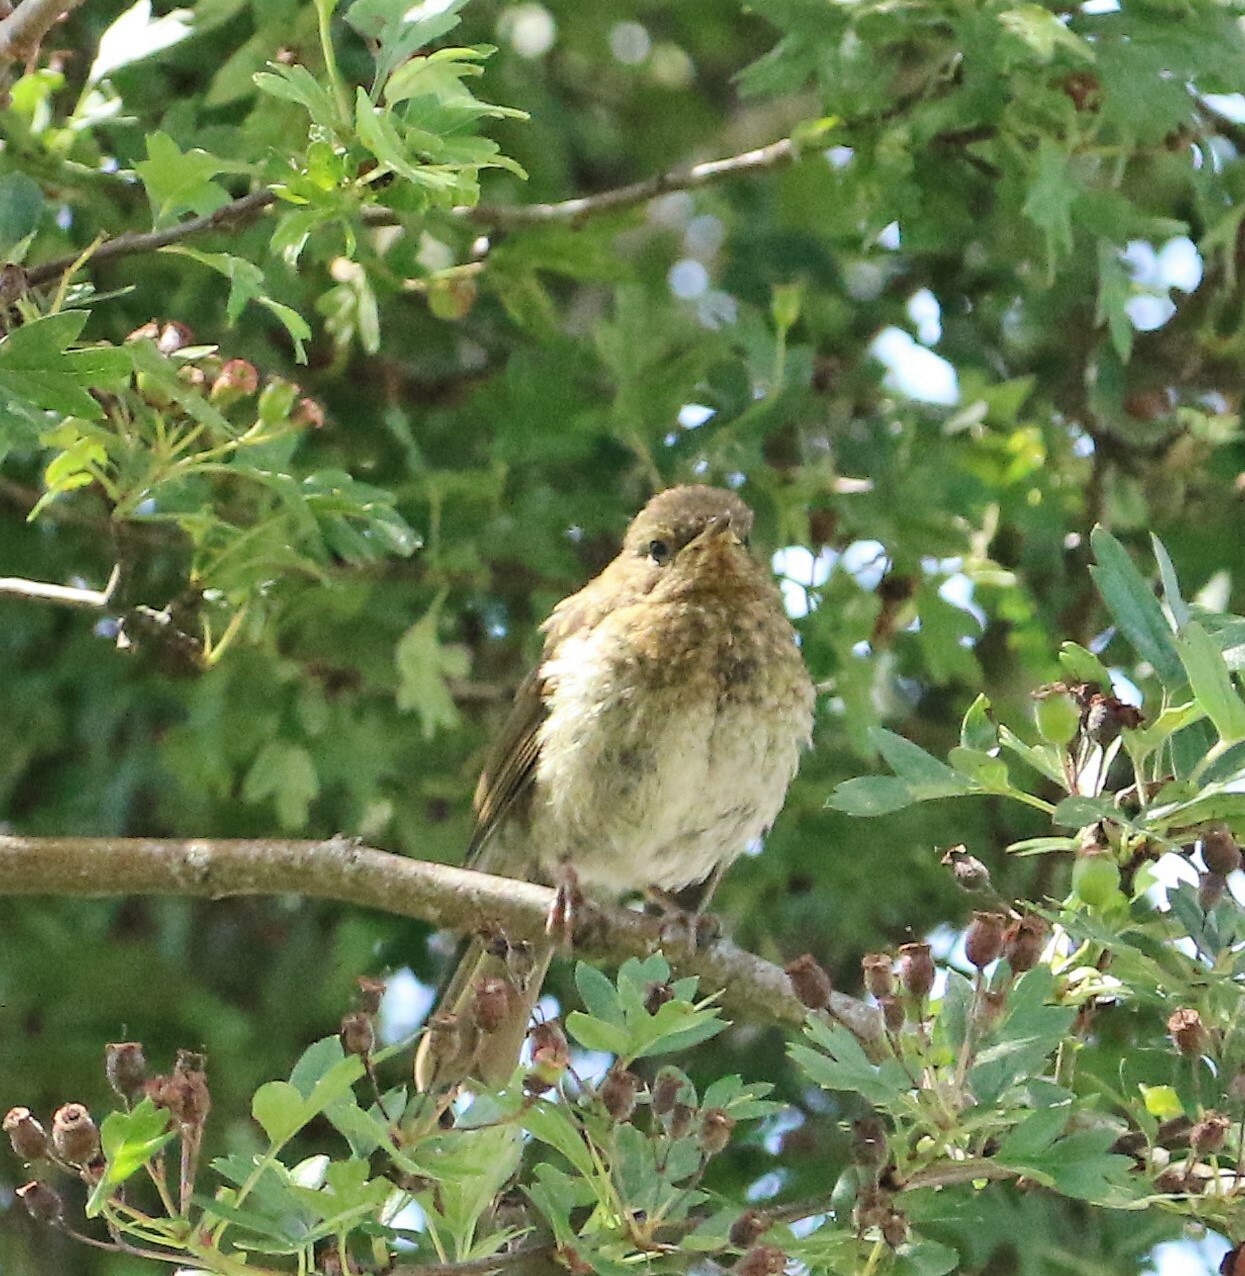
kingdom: Animalia
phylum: Chordata
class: Aves
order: Passeriformes
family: Muscicapidae
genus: Erithacus
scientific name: Erithacus rubecula
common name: European robin
